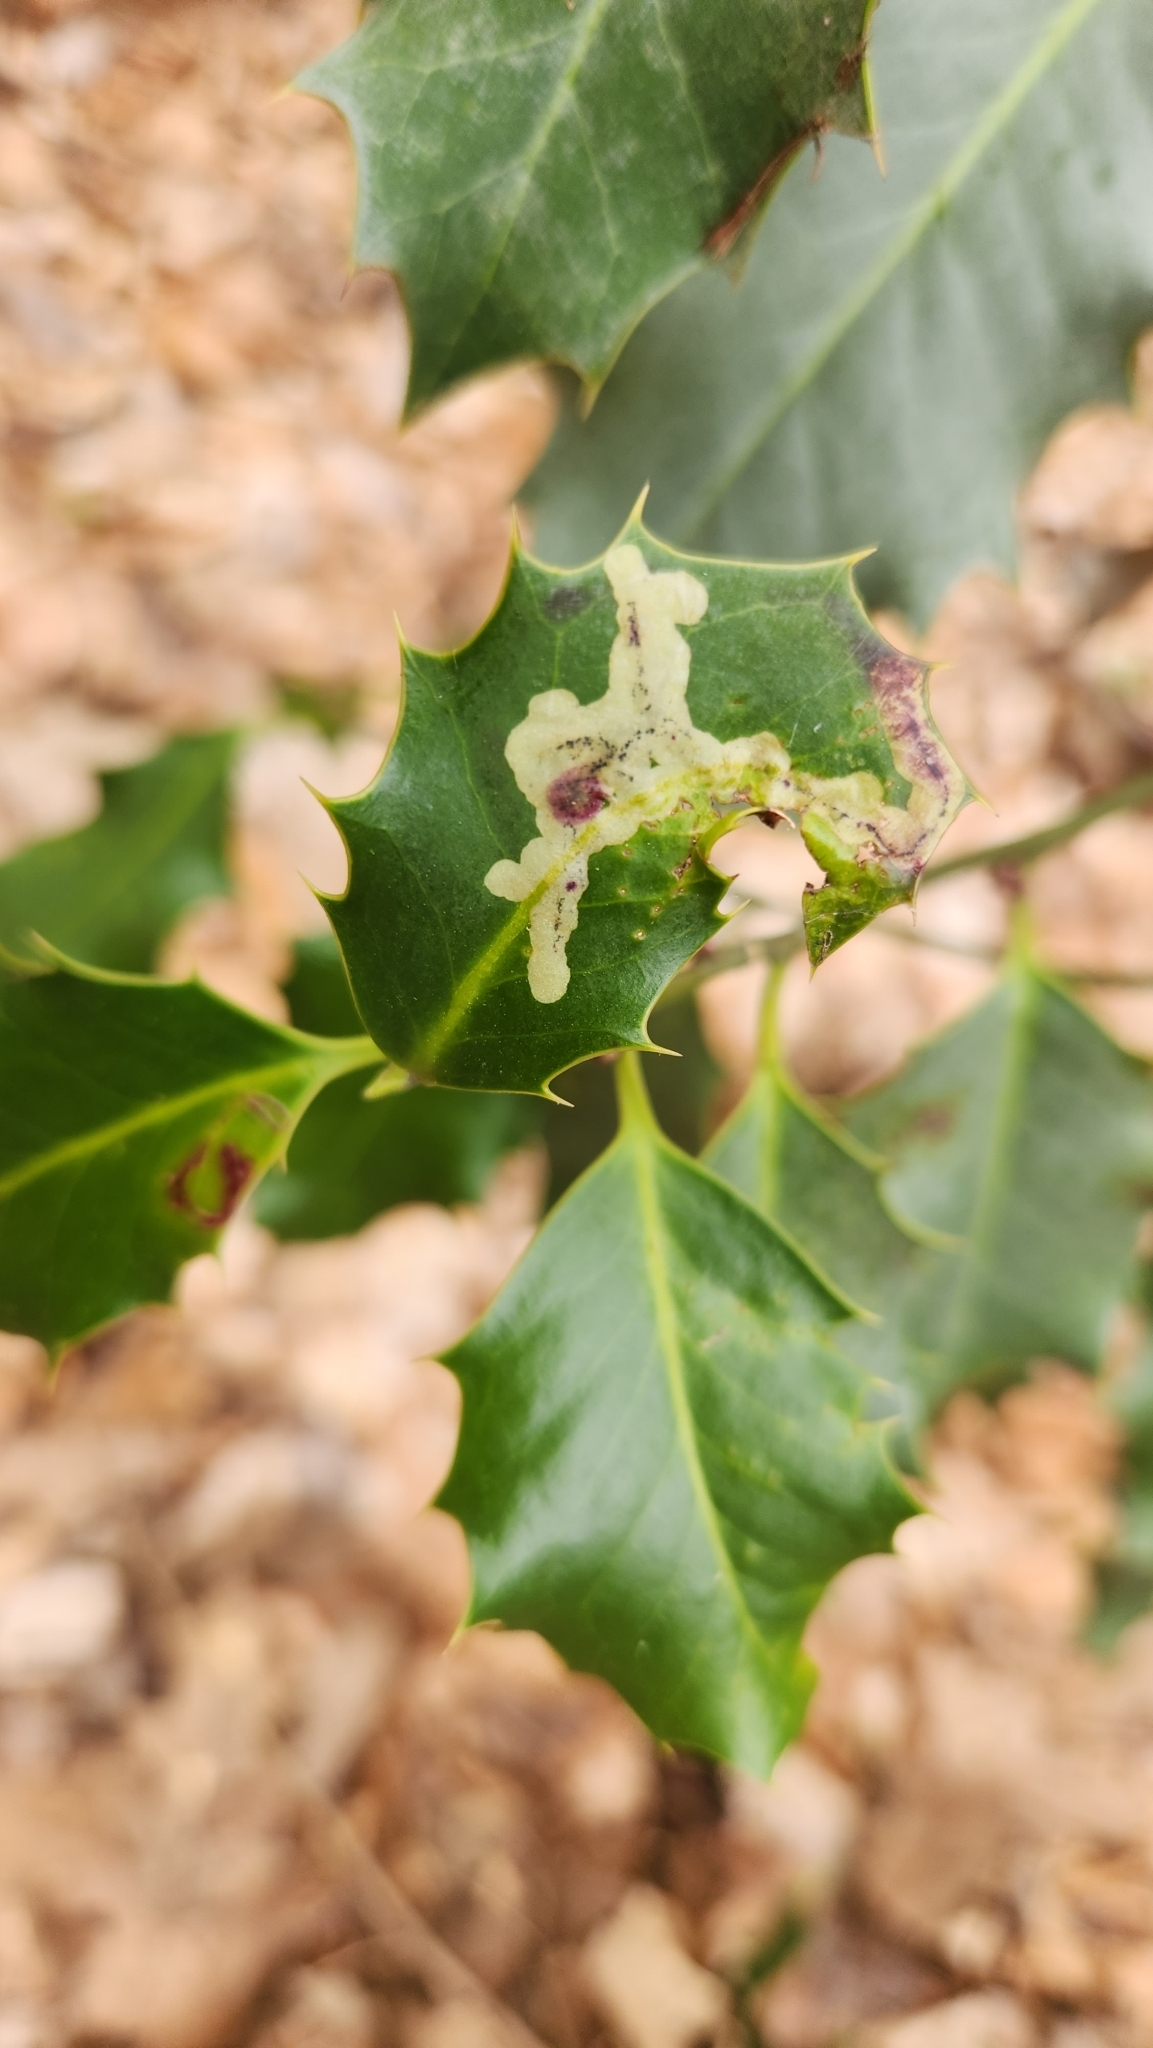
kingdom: Animalia
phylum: Arthropoda
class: Insecta
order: Diptera
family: Agromyzidae
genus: Phytomyza
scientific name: Phytomyza ilicis
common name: Holly leafminer
